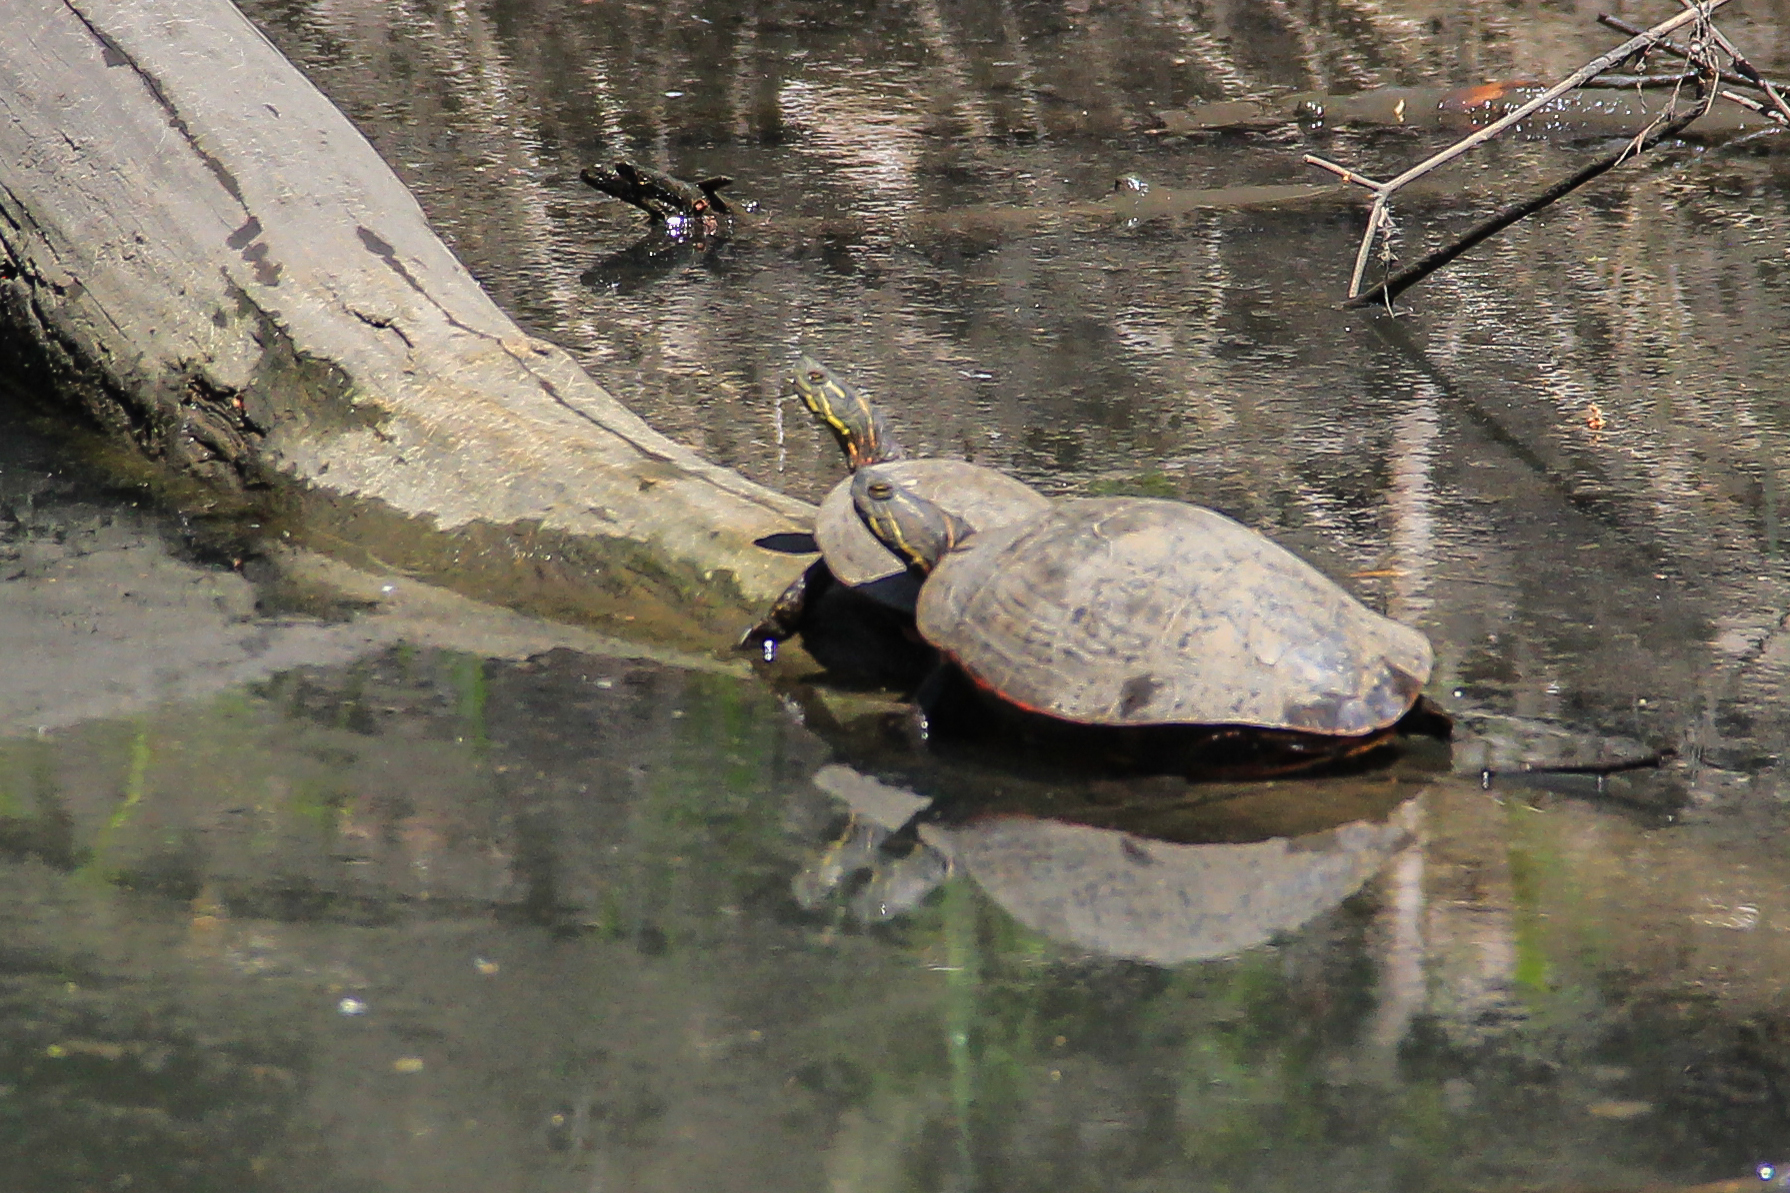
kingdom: Animalia
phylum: Chordata
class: Testudines
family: Emydidae
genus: Chrysemys
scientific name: Chrysemys picta
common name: Painted turtle
